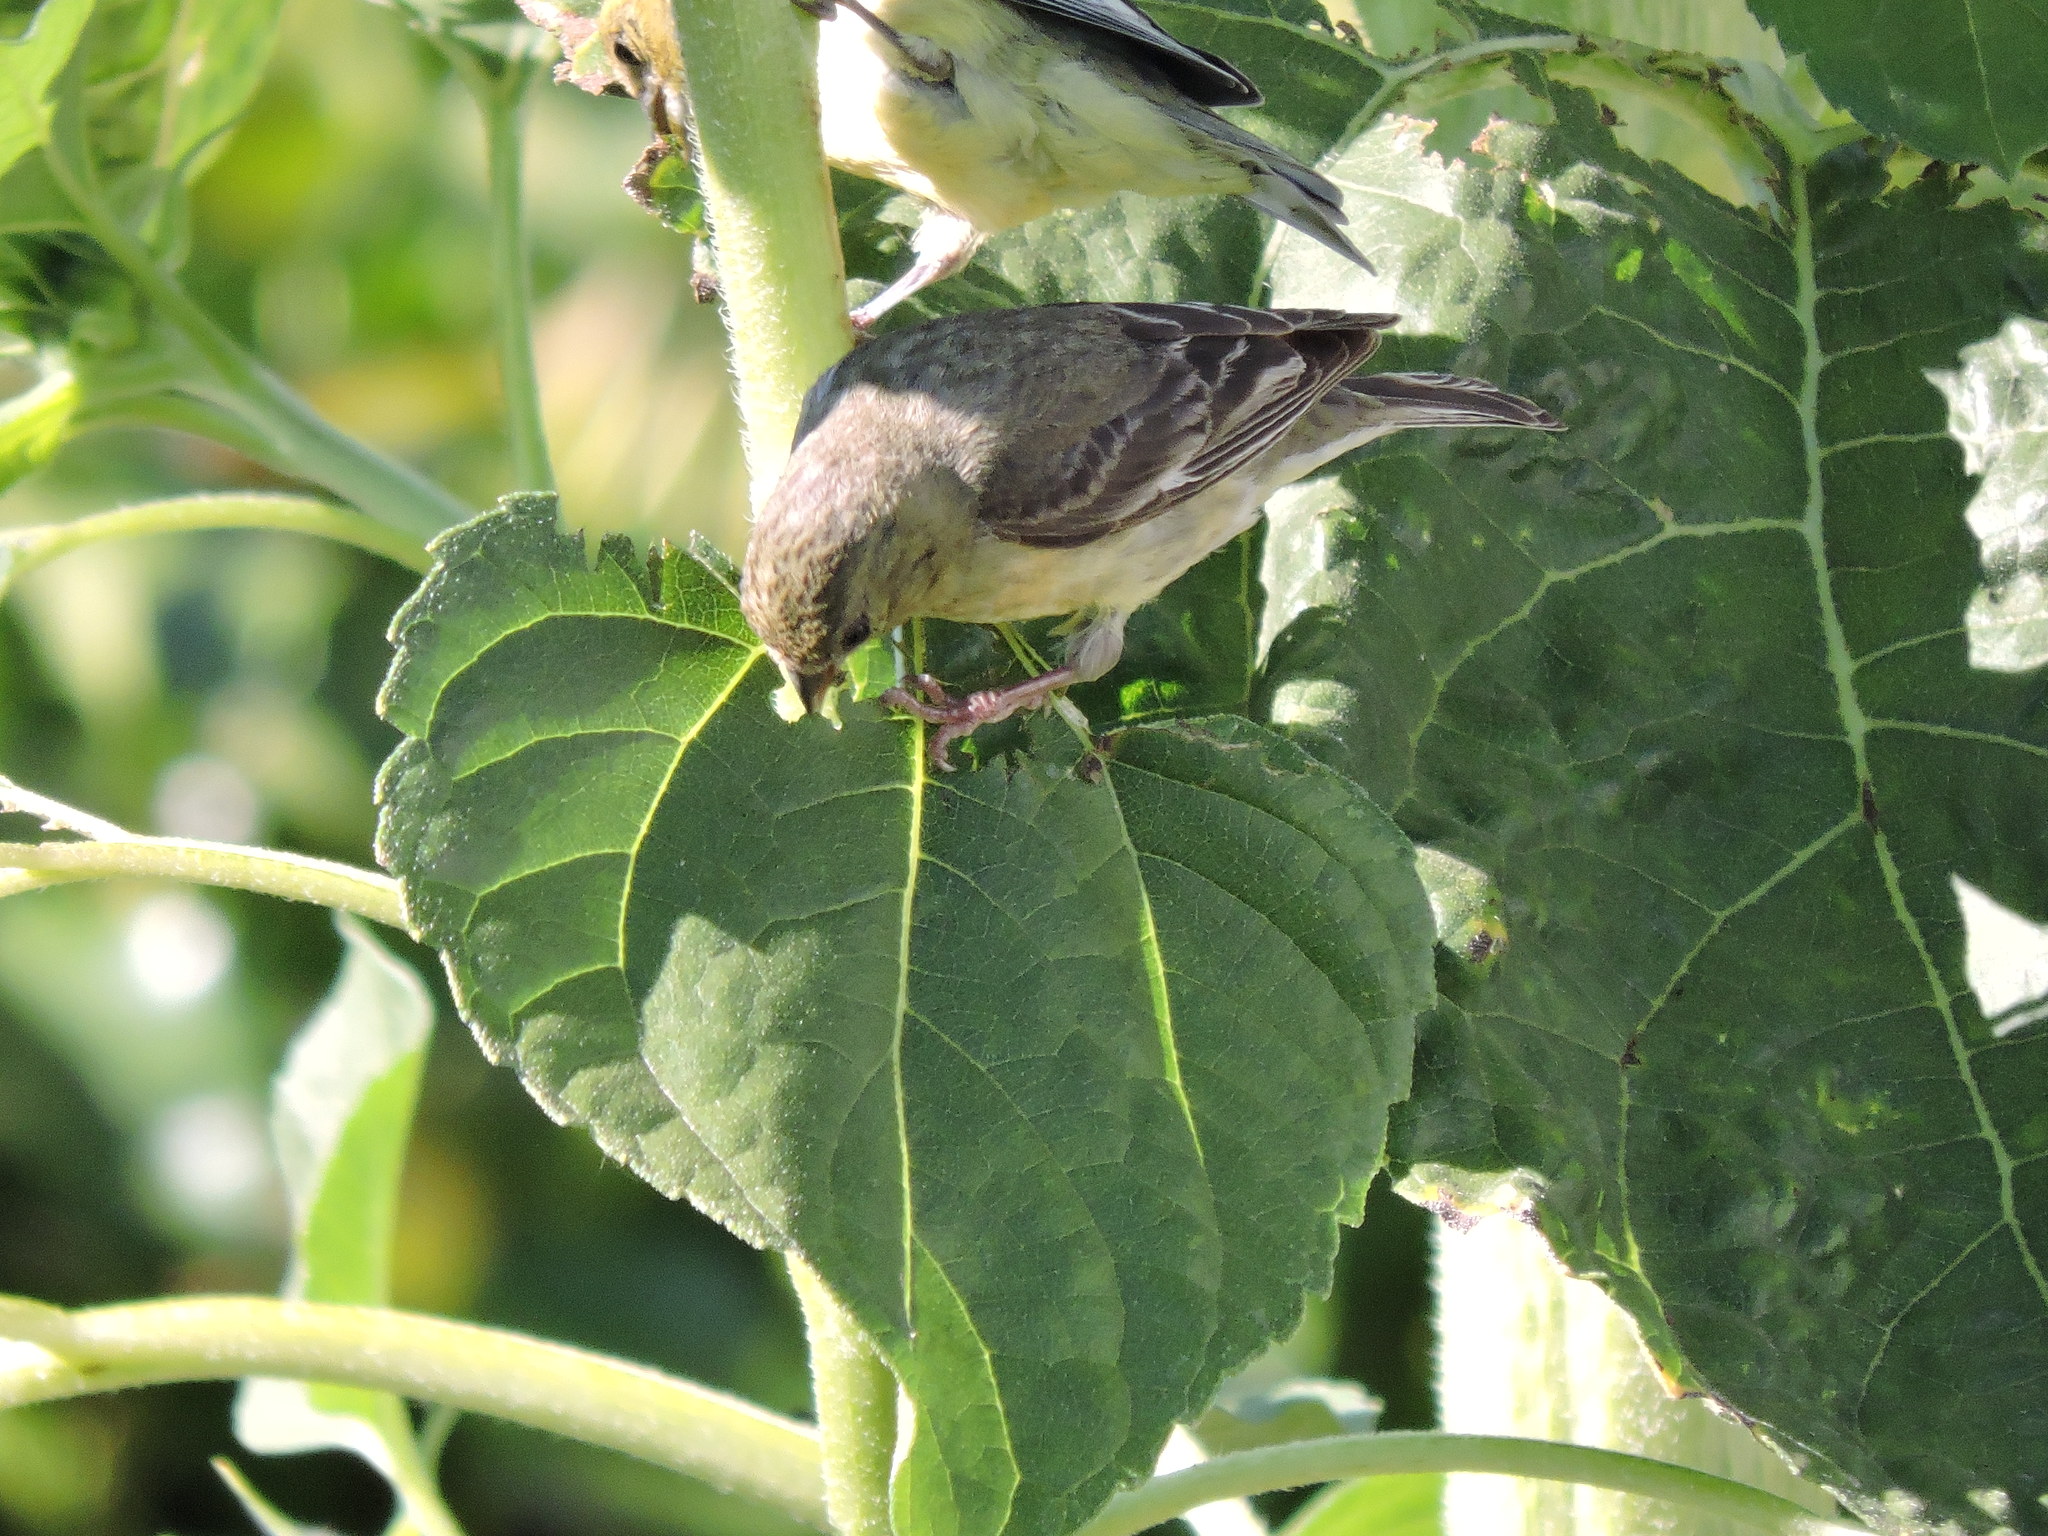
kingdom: Animalia
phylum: Chordata
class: Aves
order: Passeriformes
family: Fringillidae
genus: Spinus
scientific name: Spinus psaltria
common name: Lesser goldfinch
